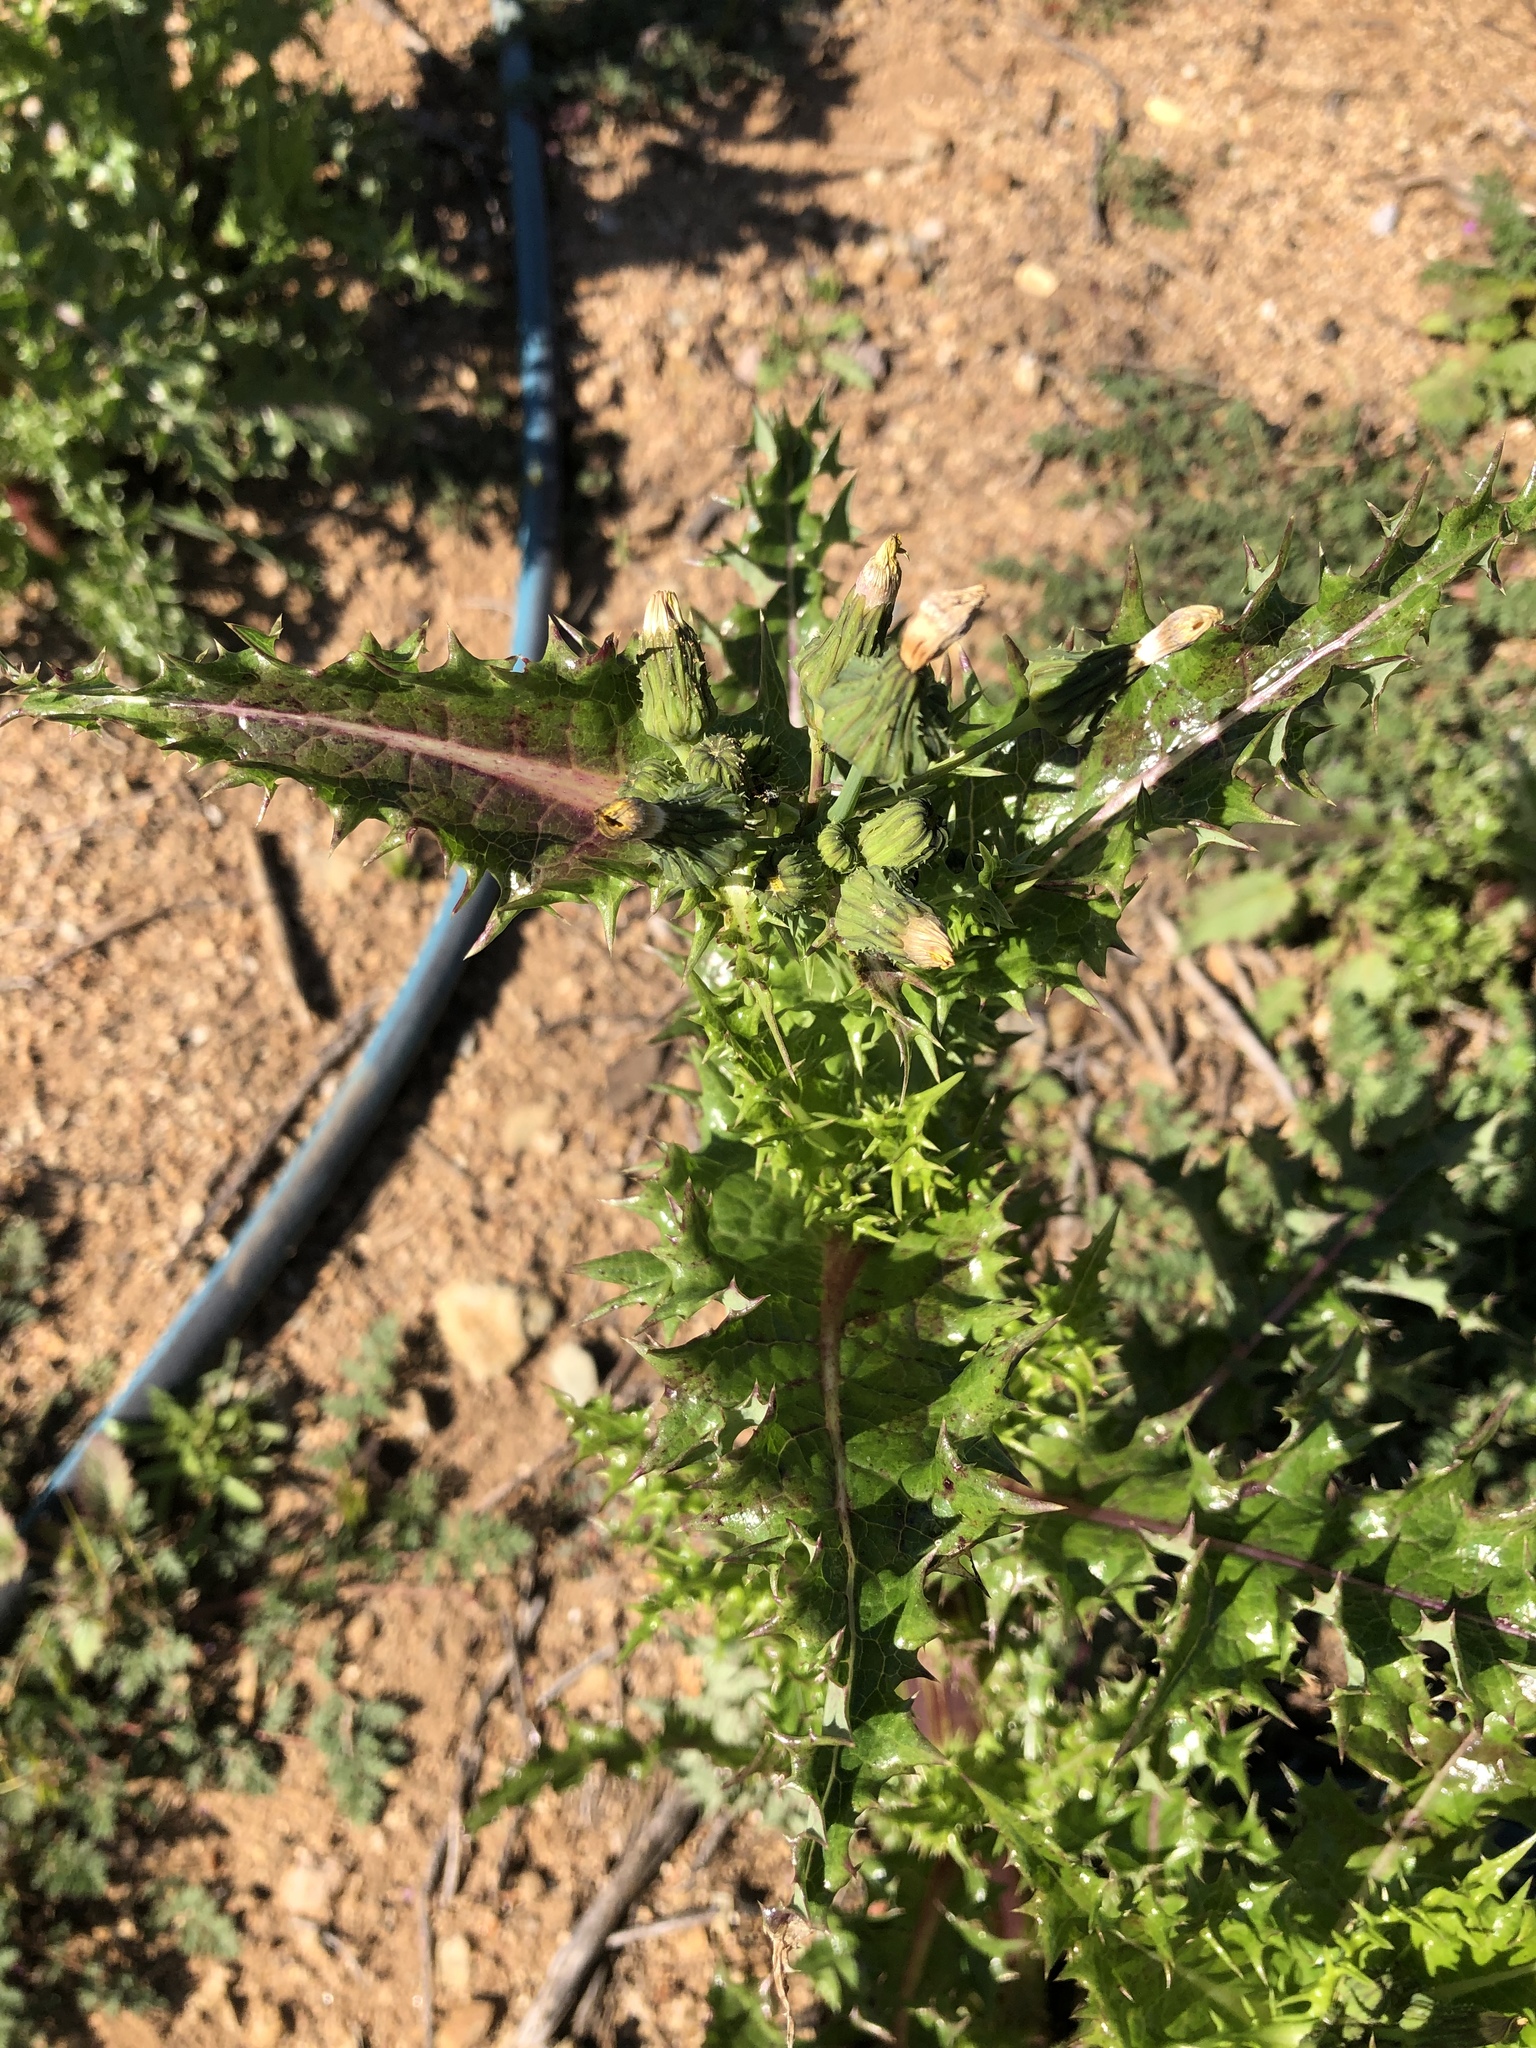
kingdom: Plantae
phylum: Tracheophyta
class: Magnoliopsida
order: Asterales
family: Asteraceae
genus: Sonchus
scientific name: Sonchus asper
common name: Prickly sow-thistle
